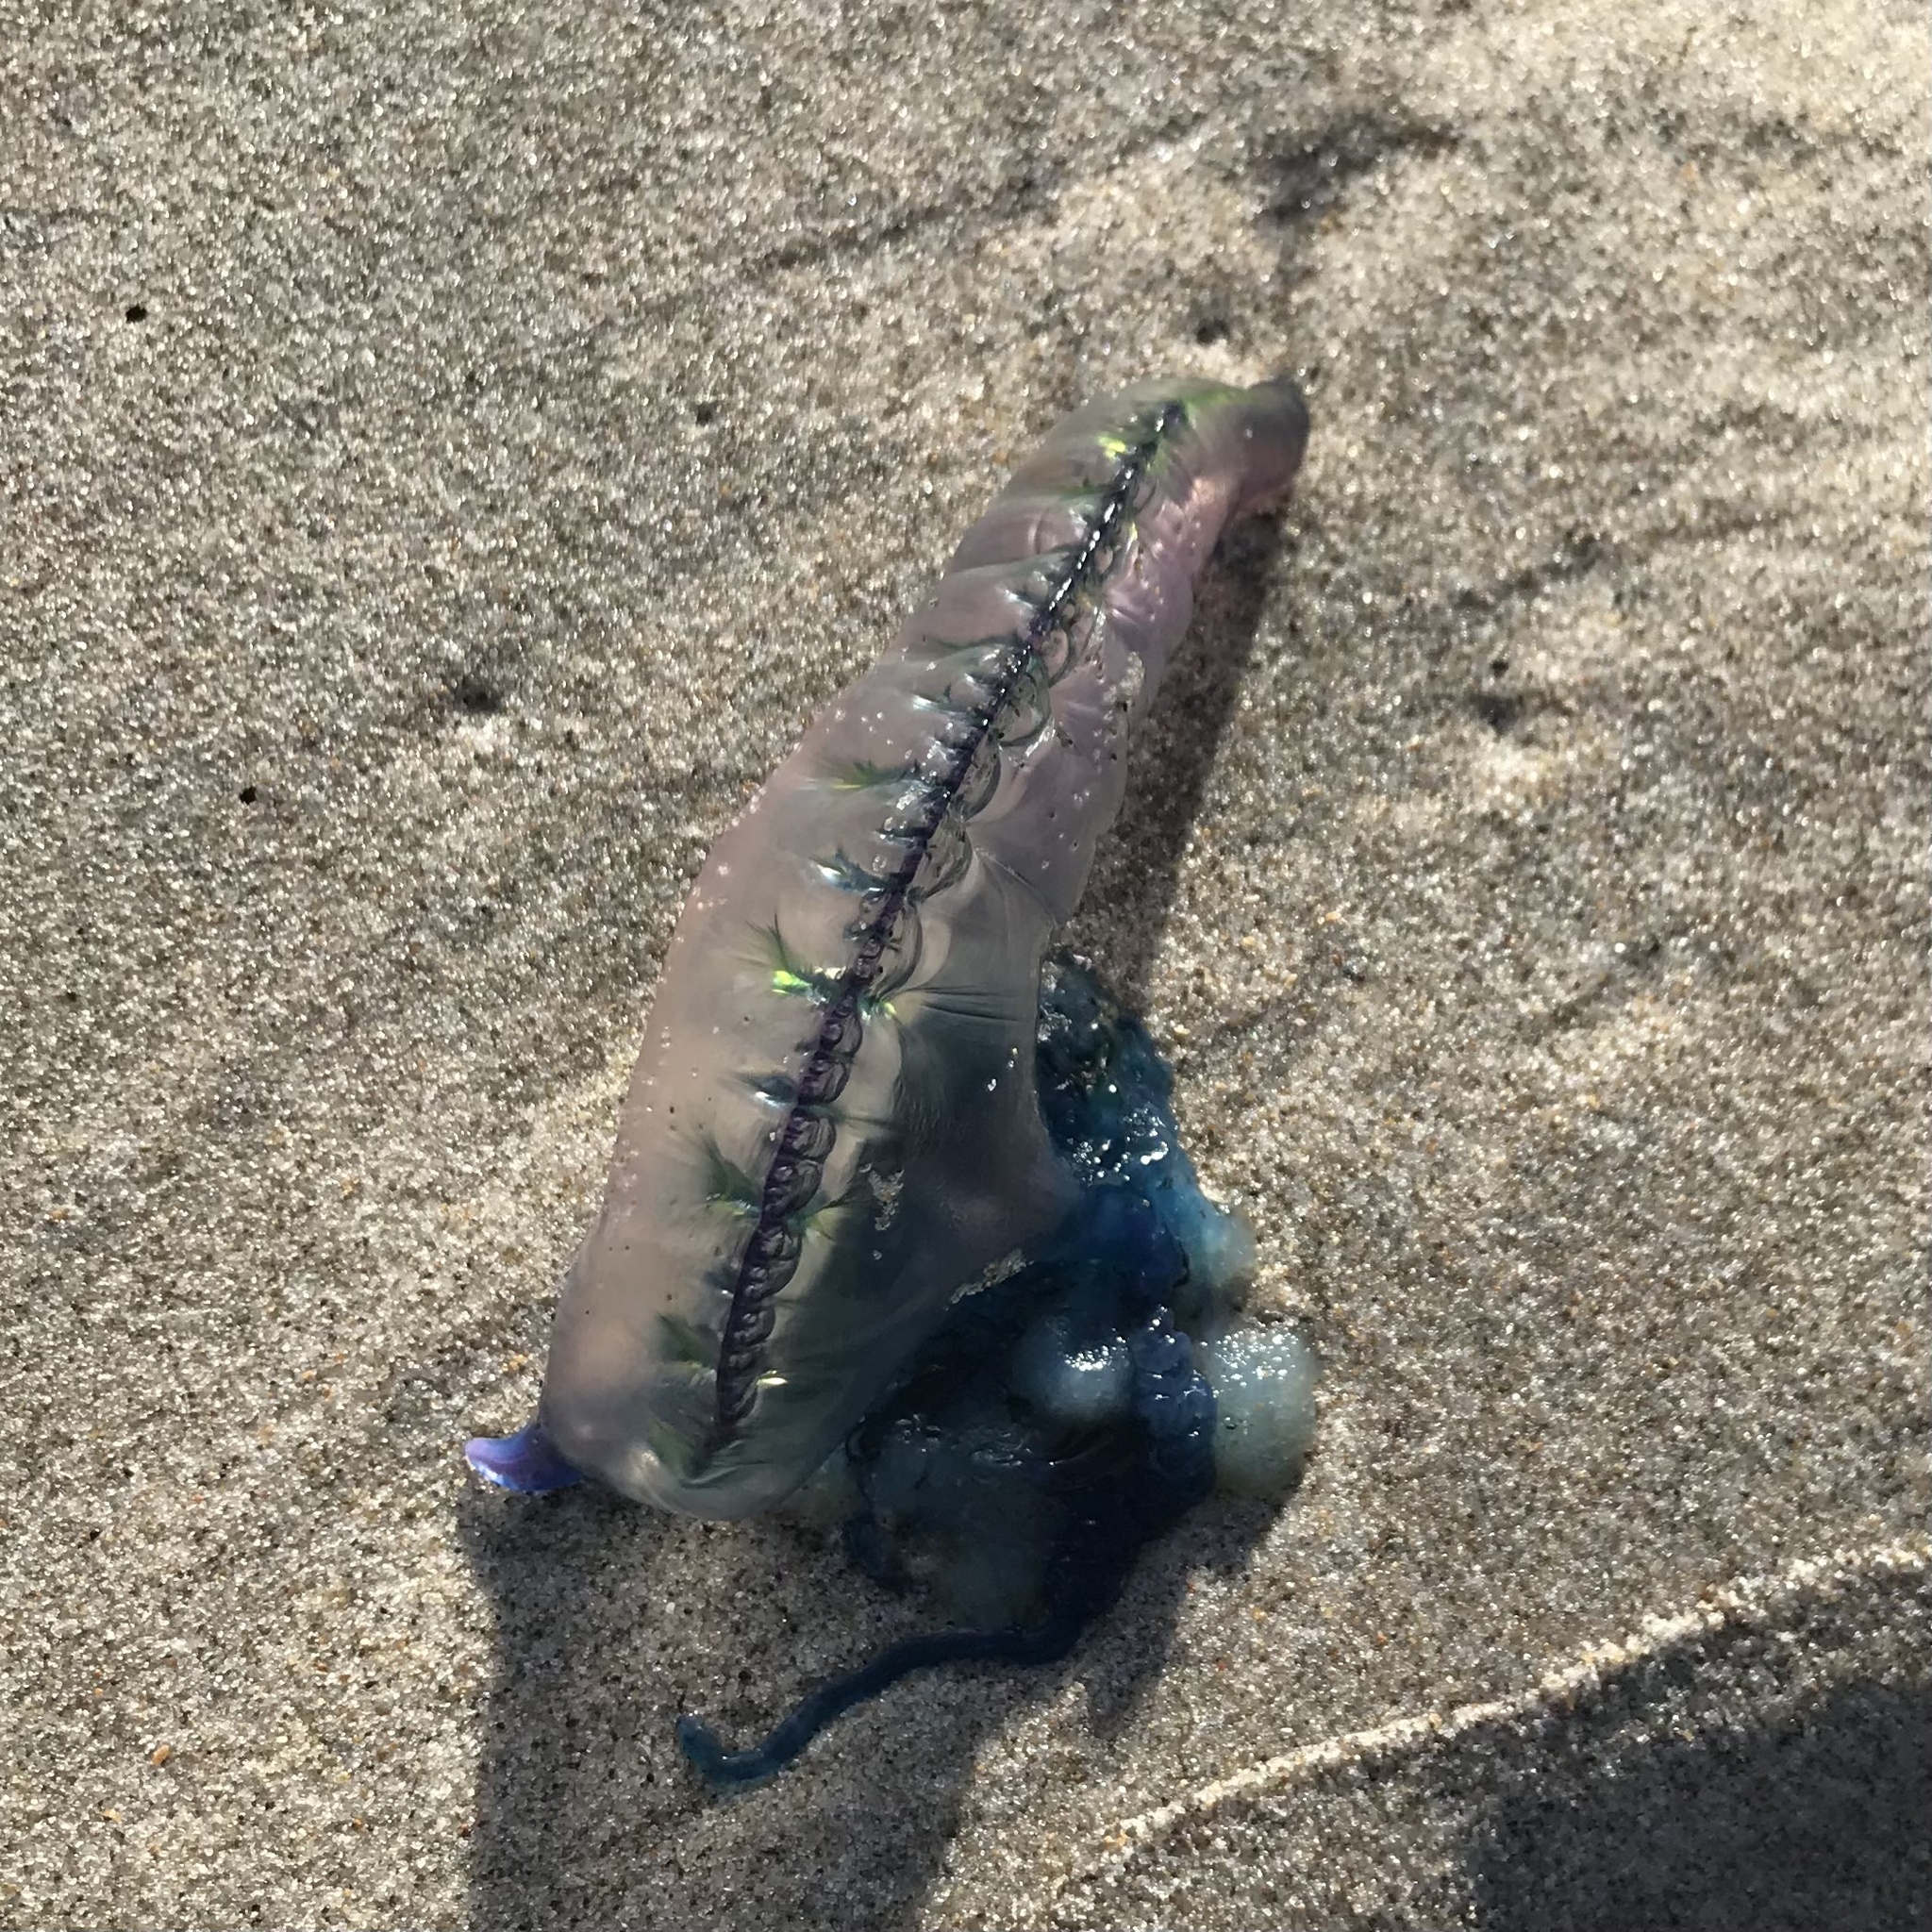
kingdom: Animalia
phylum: Cnidaria
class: Hydrozoa
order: Siphonophorae
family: Physaliidae
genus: Physalia
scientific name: Physalia physalis
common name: Portuguese man-of-war
